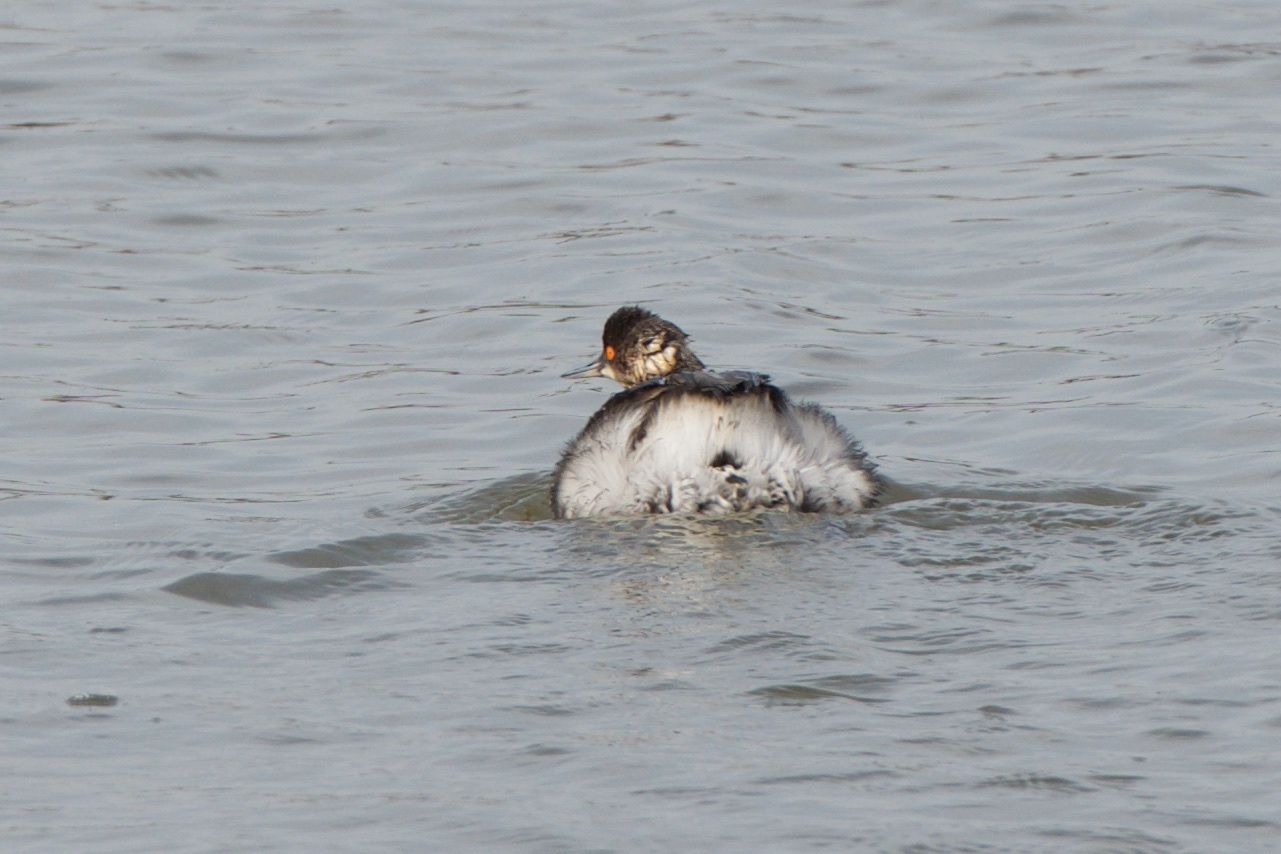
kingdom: Animalia
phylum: Chordata
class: Aves
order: Podicipediformes
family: Podicipedidae
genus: Podiceps
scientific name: Podiceps nigricollis
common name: Black-necked grebe
